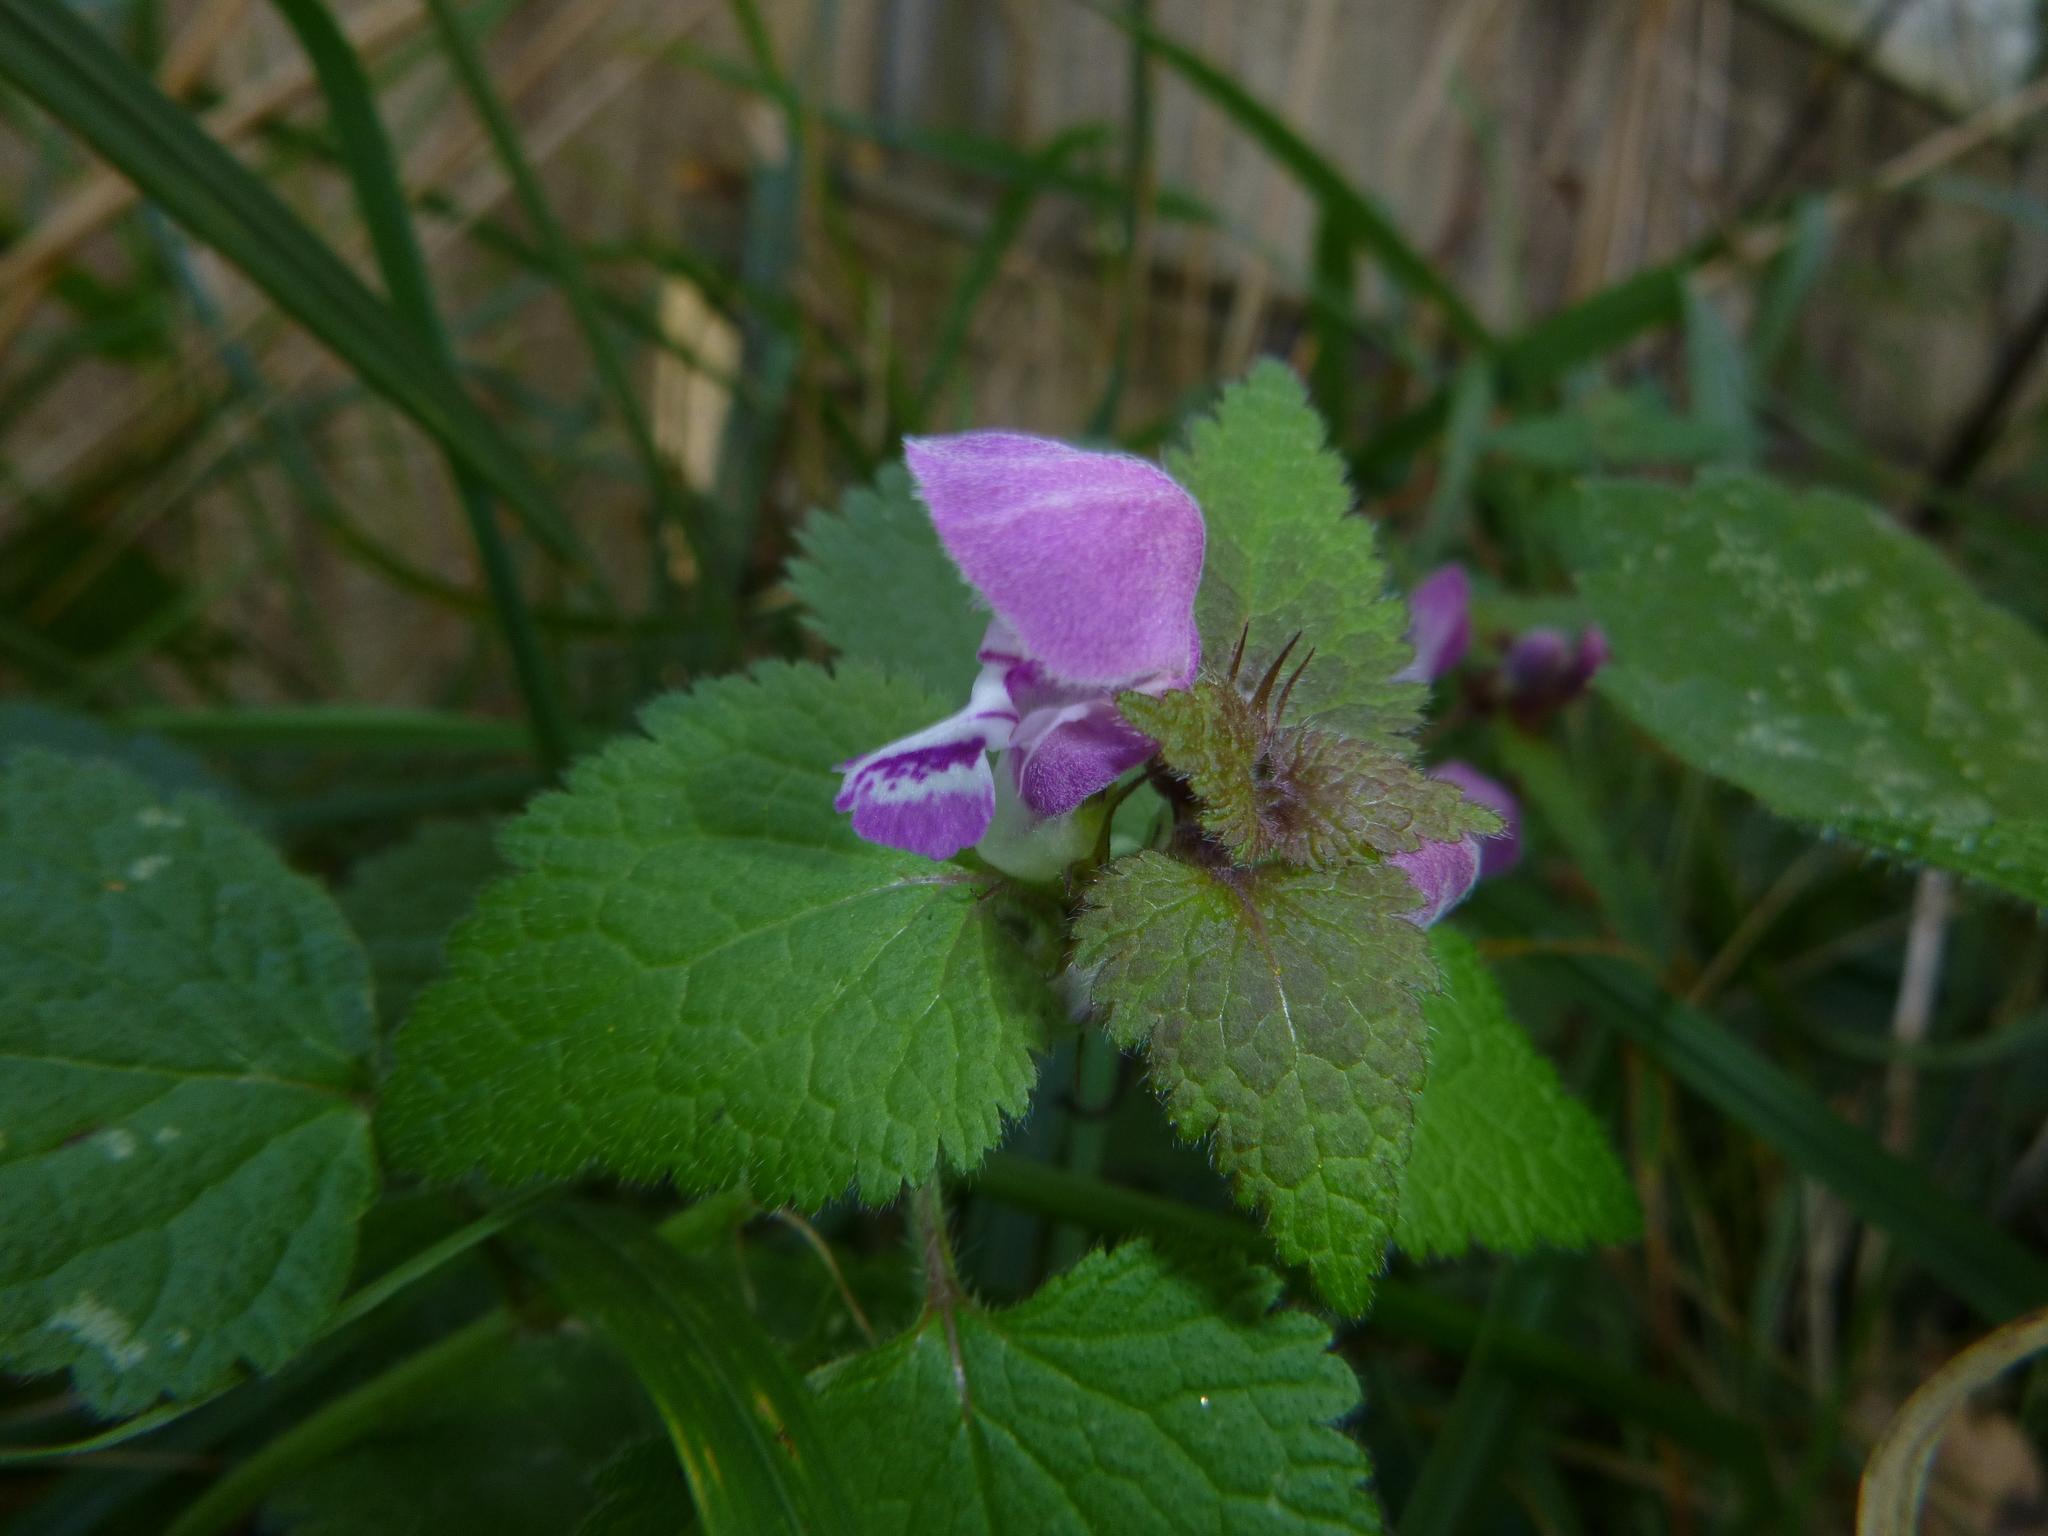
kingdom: Plantae
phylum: Tracheophyta
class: Magnoliopsida
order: Lamiales
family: Lamiaceae
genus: Lamium
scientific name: Lamium maculatum
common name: Spotted dead-nettle
